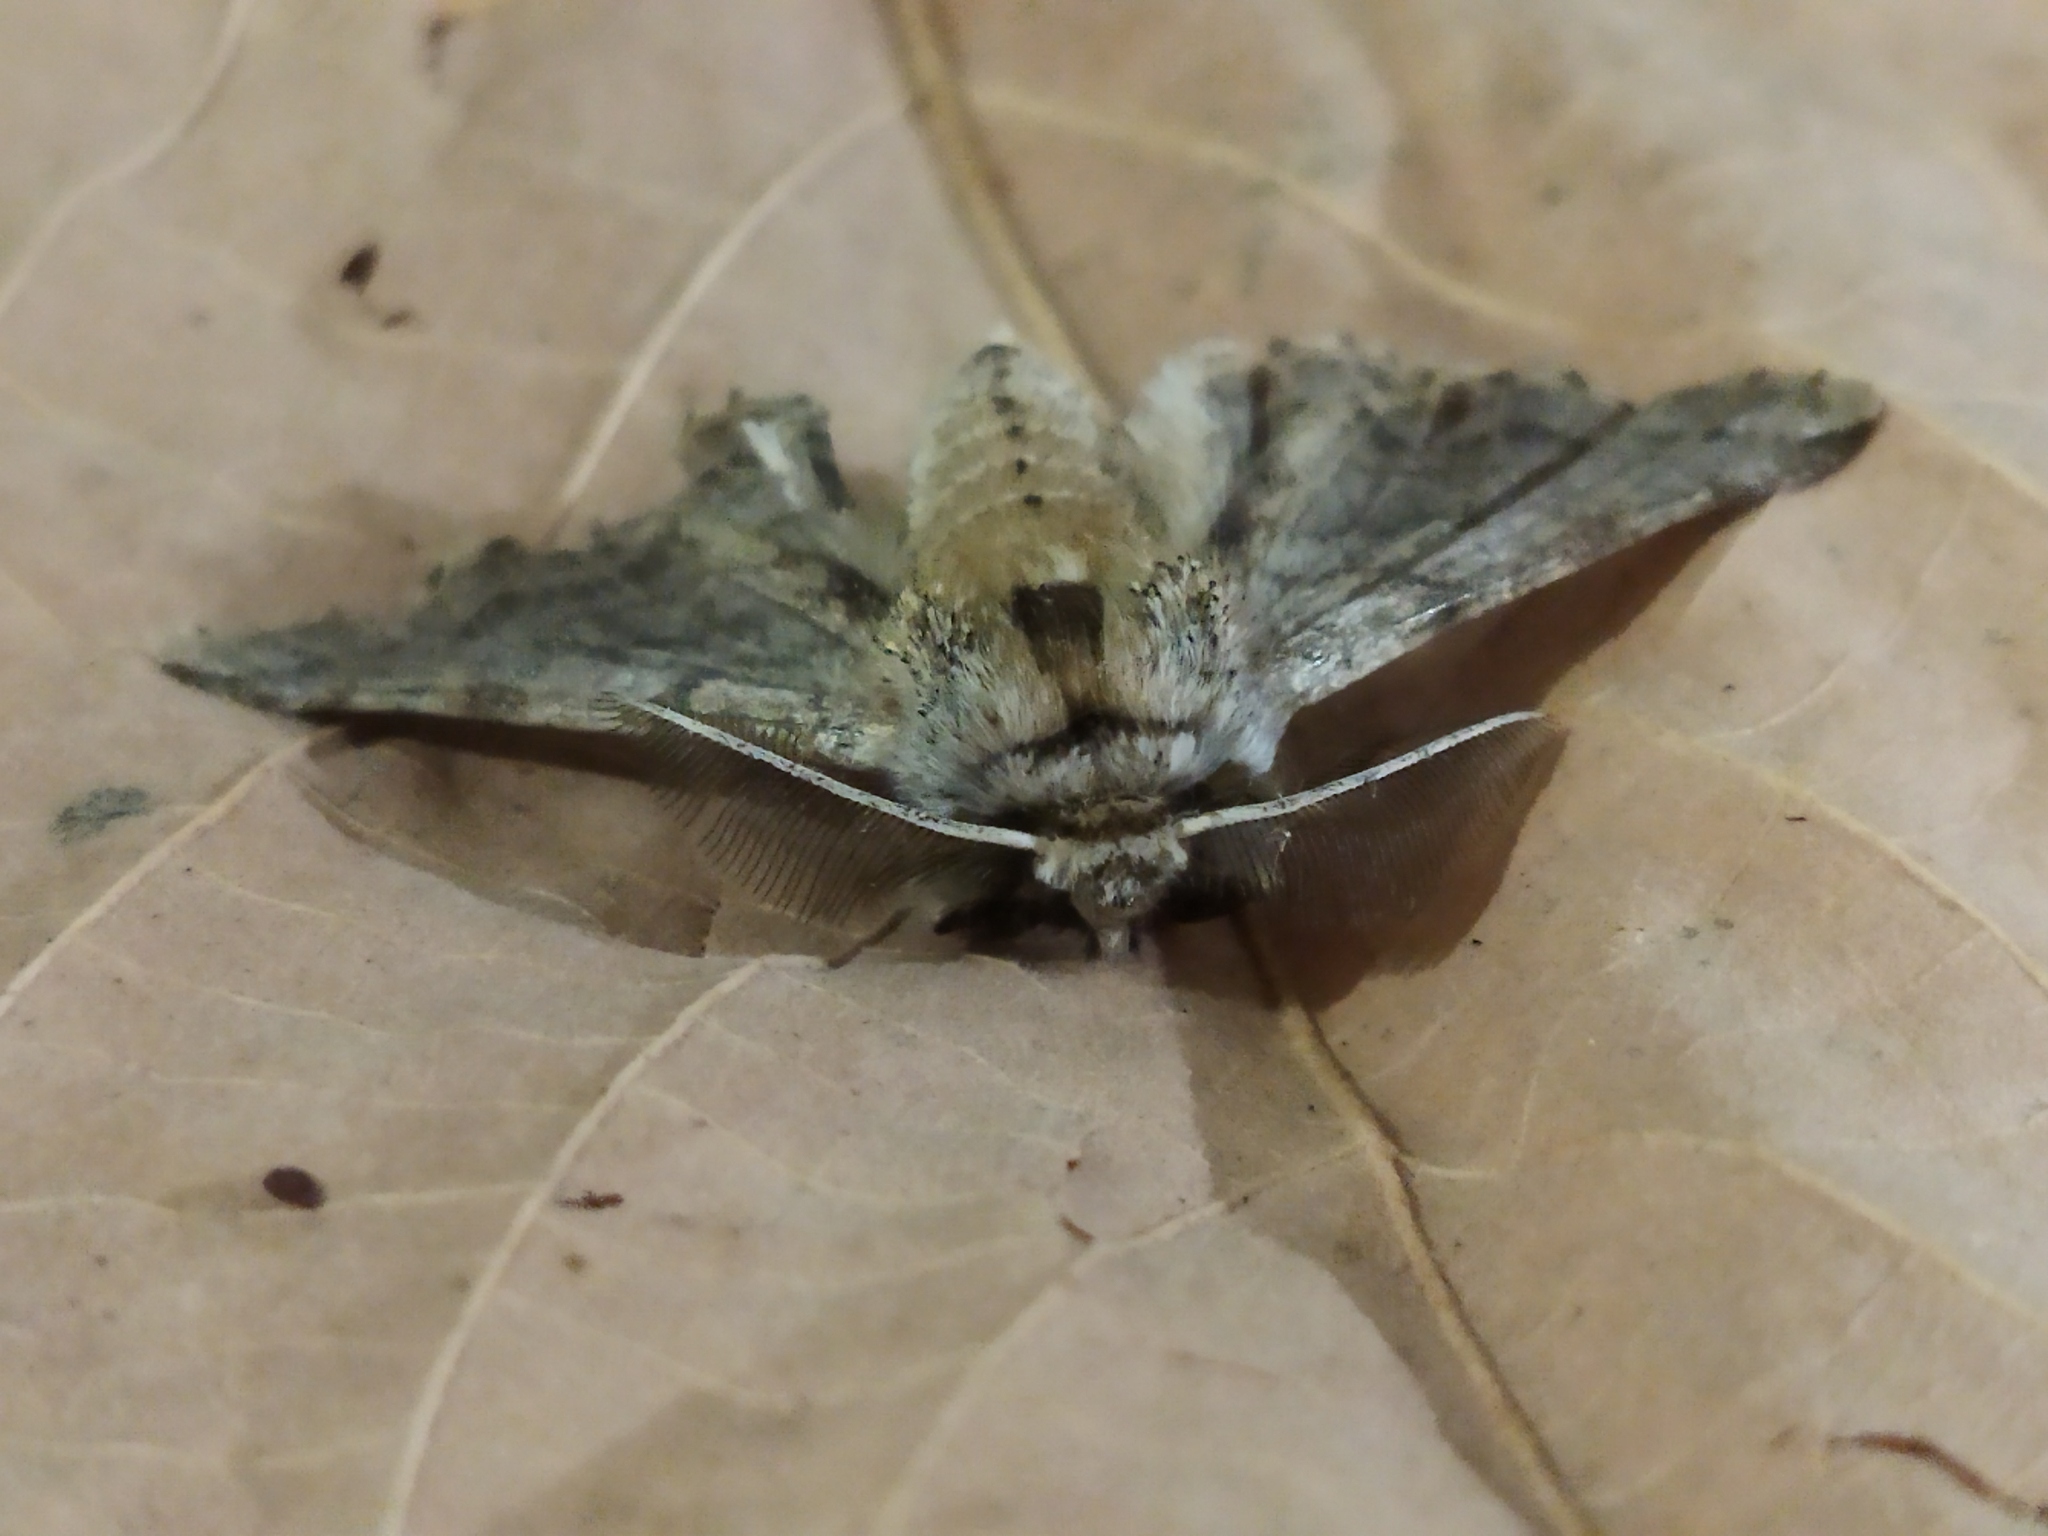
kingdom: Animalia
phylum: Arthropoda
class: Insecta
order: Lepidoptera
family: Geometridae
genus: Apochima
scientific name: Apochima flabellaria
